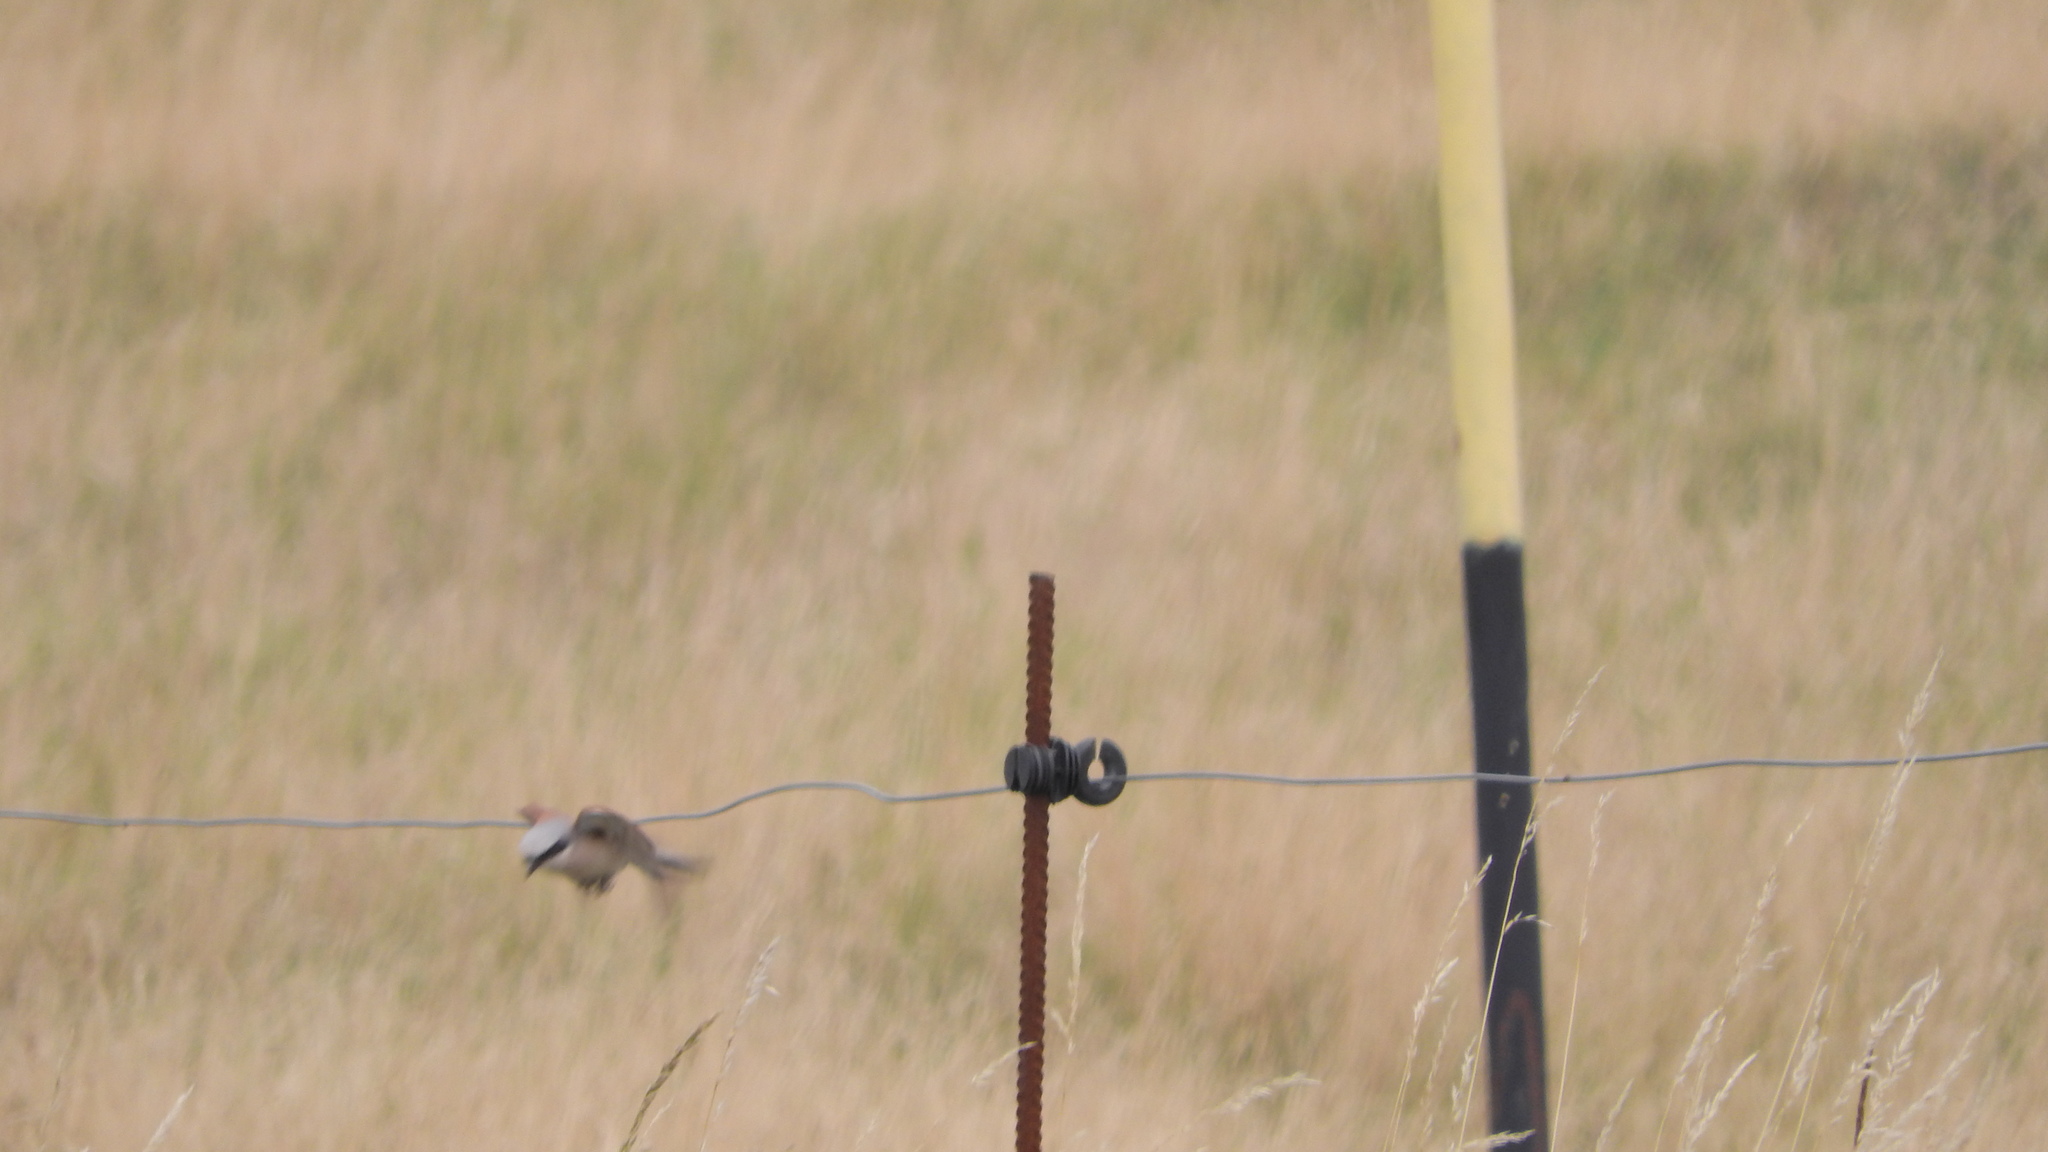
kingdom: Animalia
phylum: Chordata
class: Aves
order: Passeriformes
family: Laniidae
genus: Lanius
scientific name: Lanius collurio
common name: Red-backed shrike
